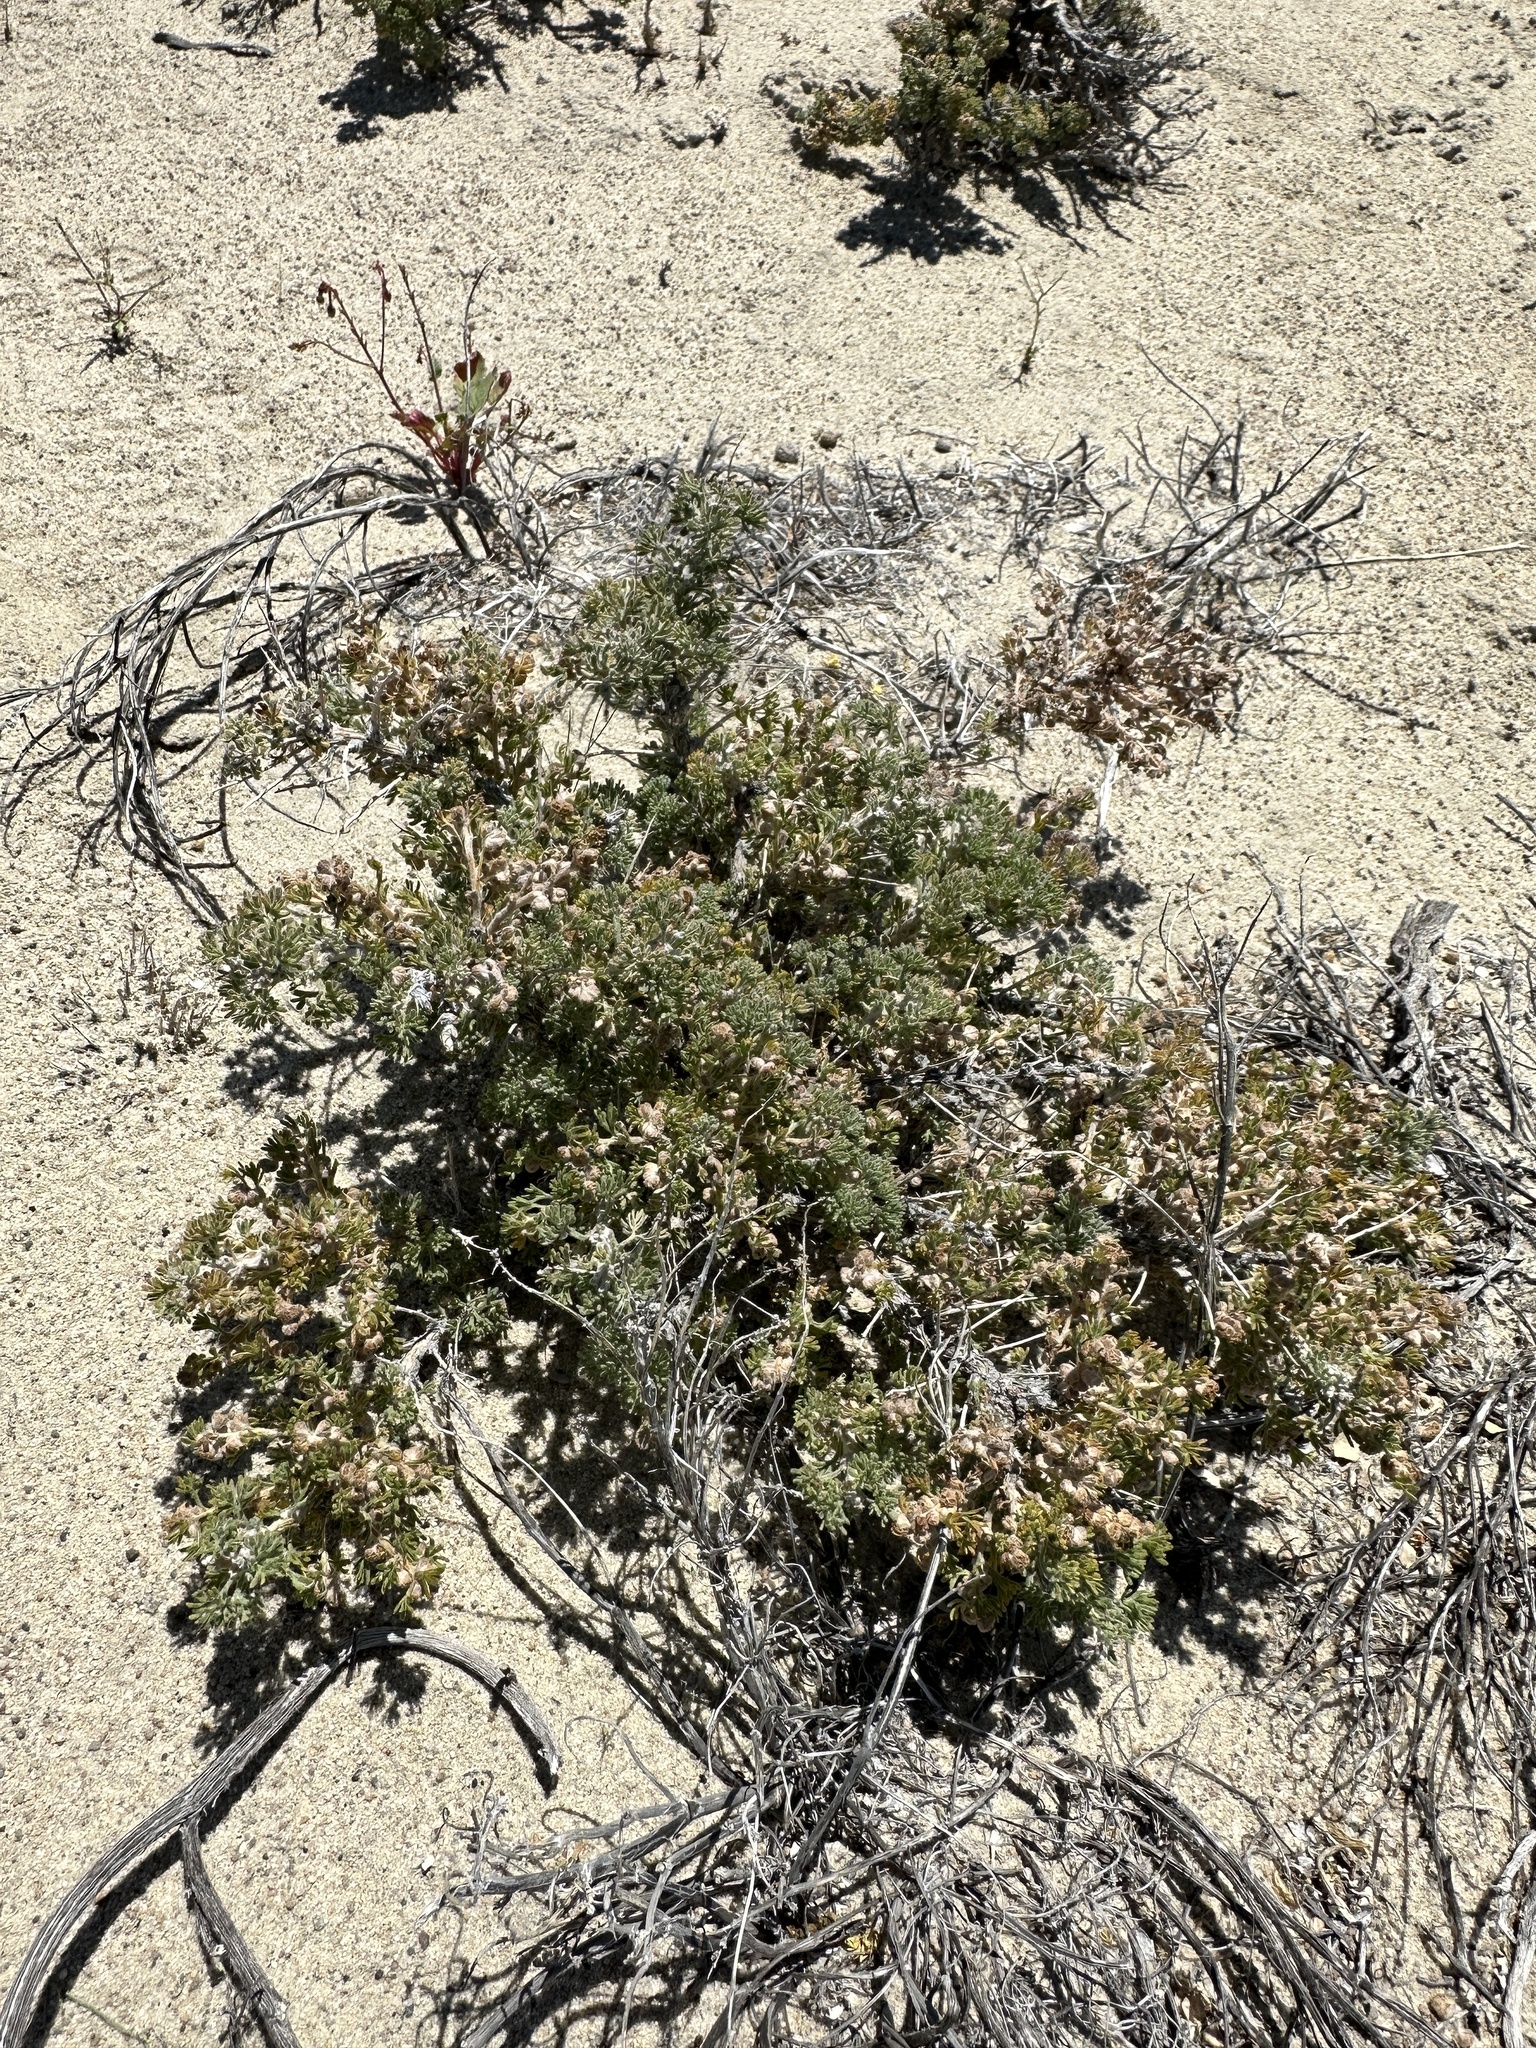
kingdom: Plantae
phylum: Tracheophyta
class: Magnoliopsida
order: Asterales
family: Asteraceae
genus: Artemisia
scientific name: Artemisia spinescens
